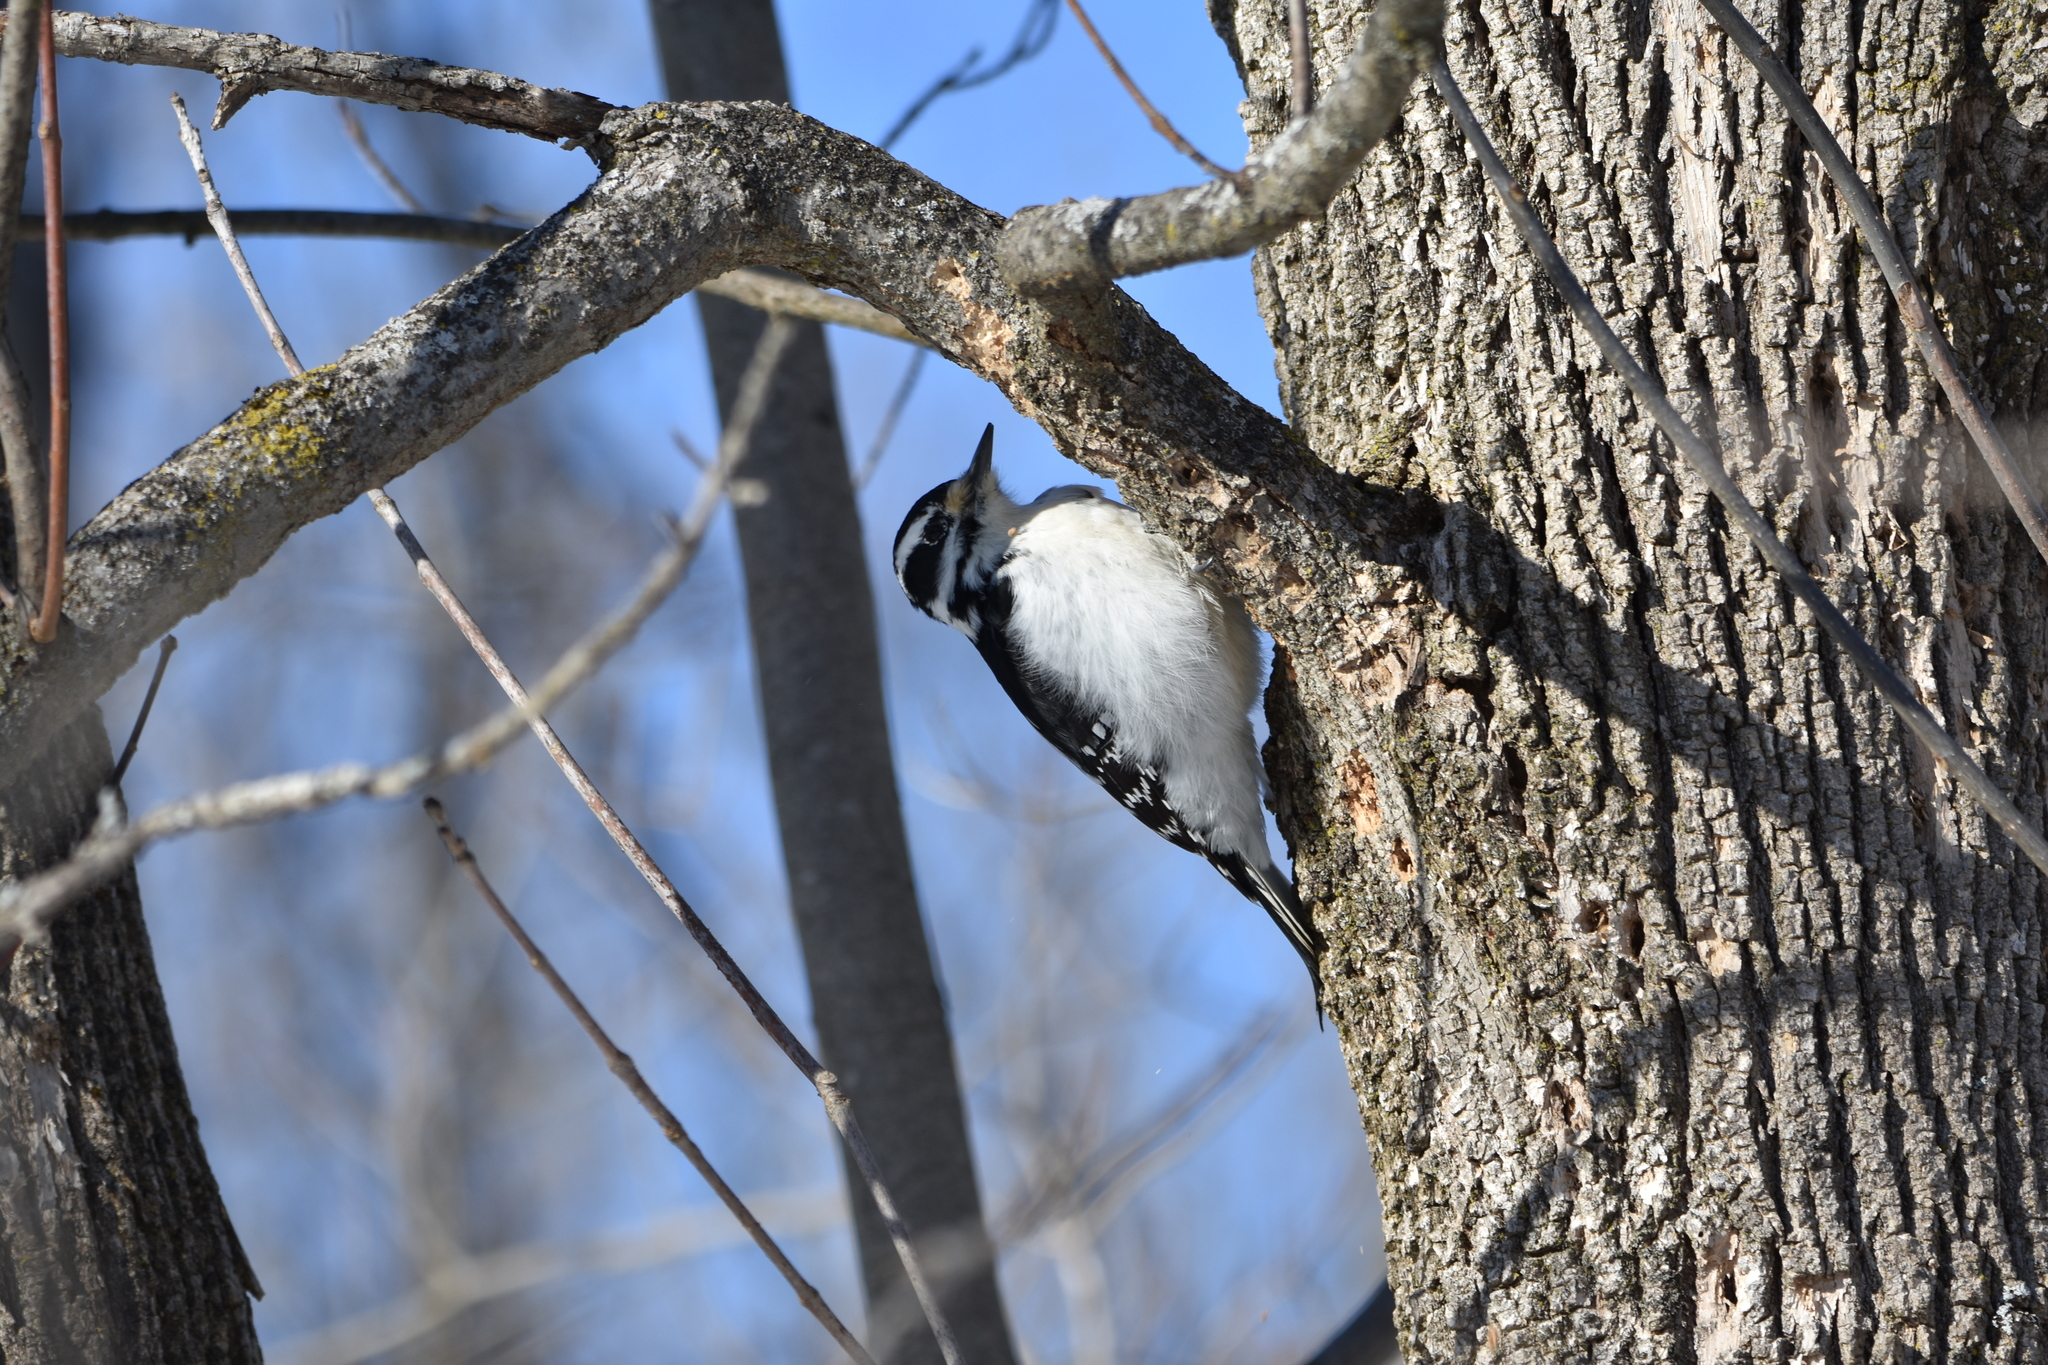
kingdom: Animalia
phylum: Chordata
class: Aves
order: Piciformes
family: Picidae
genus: Leuconotopicus
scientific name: Leuconotopicus villosus
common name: Hairy woodpecker
